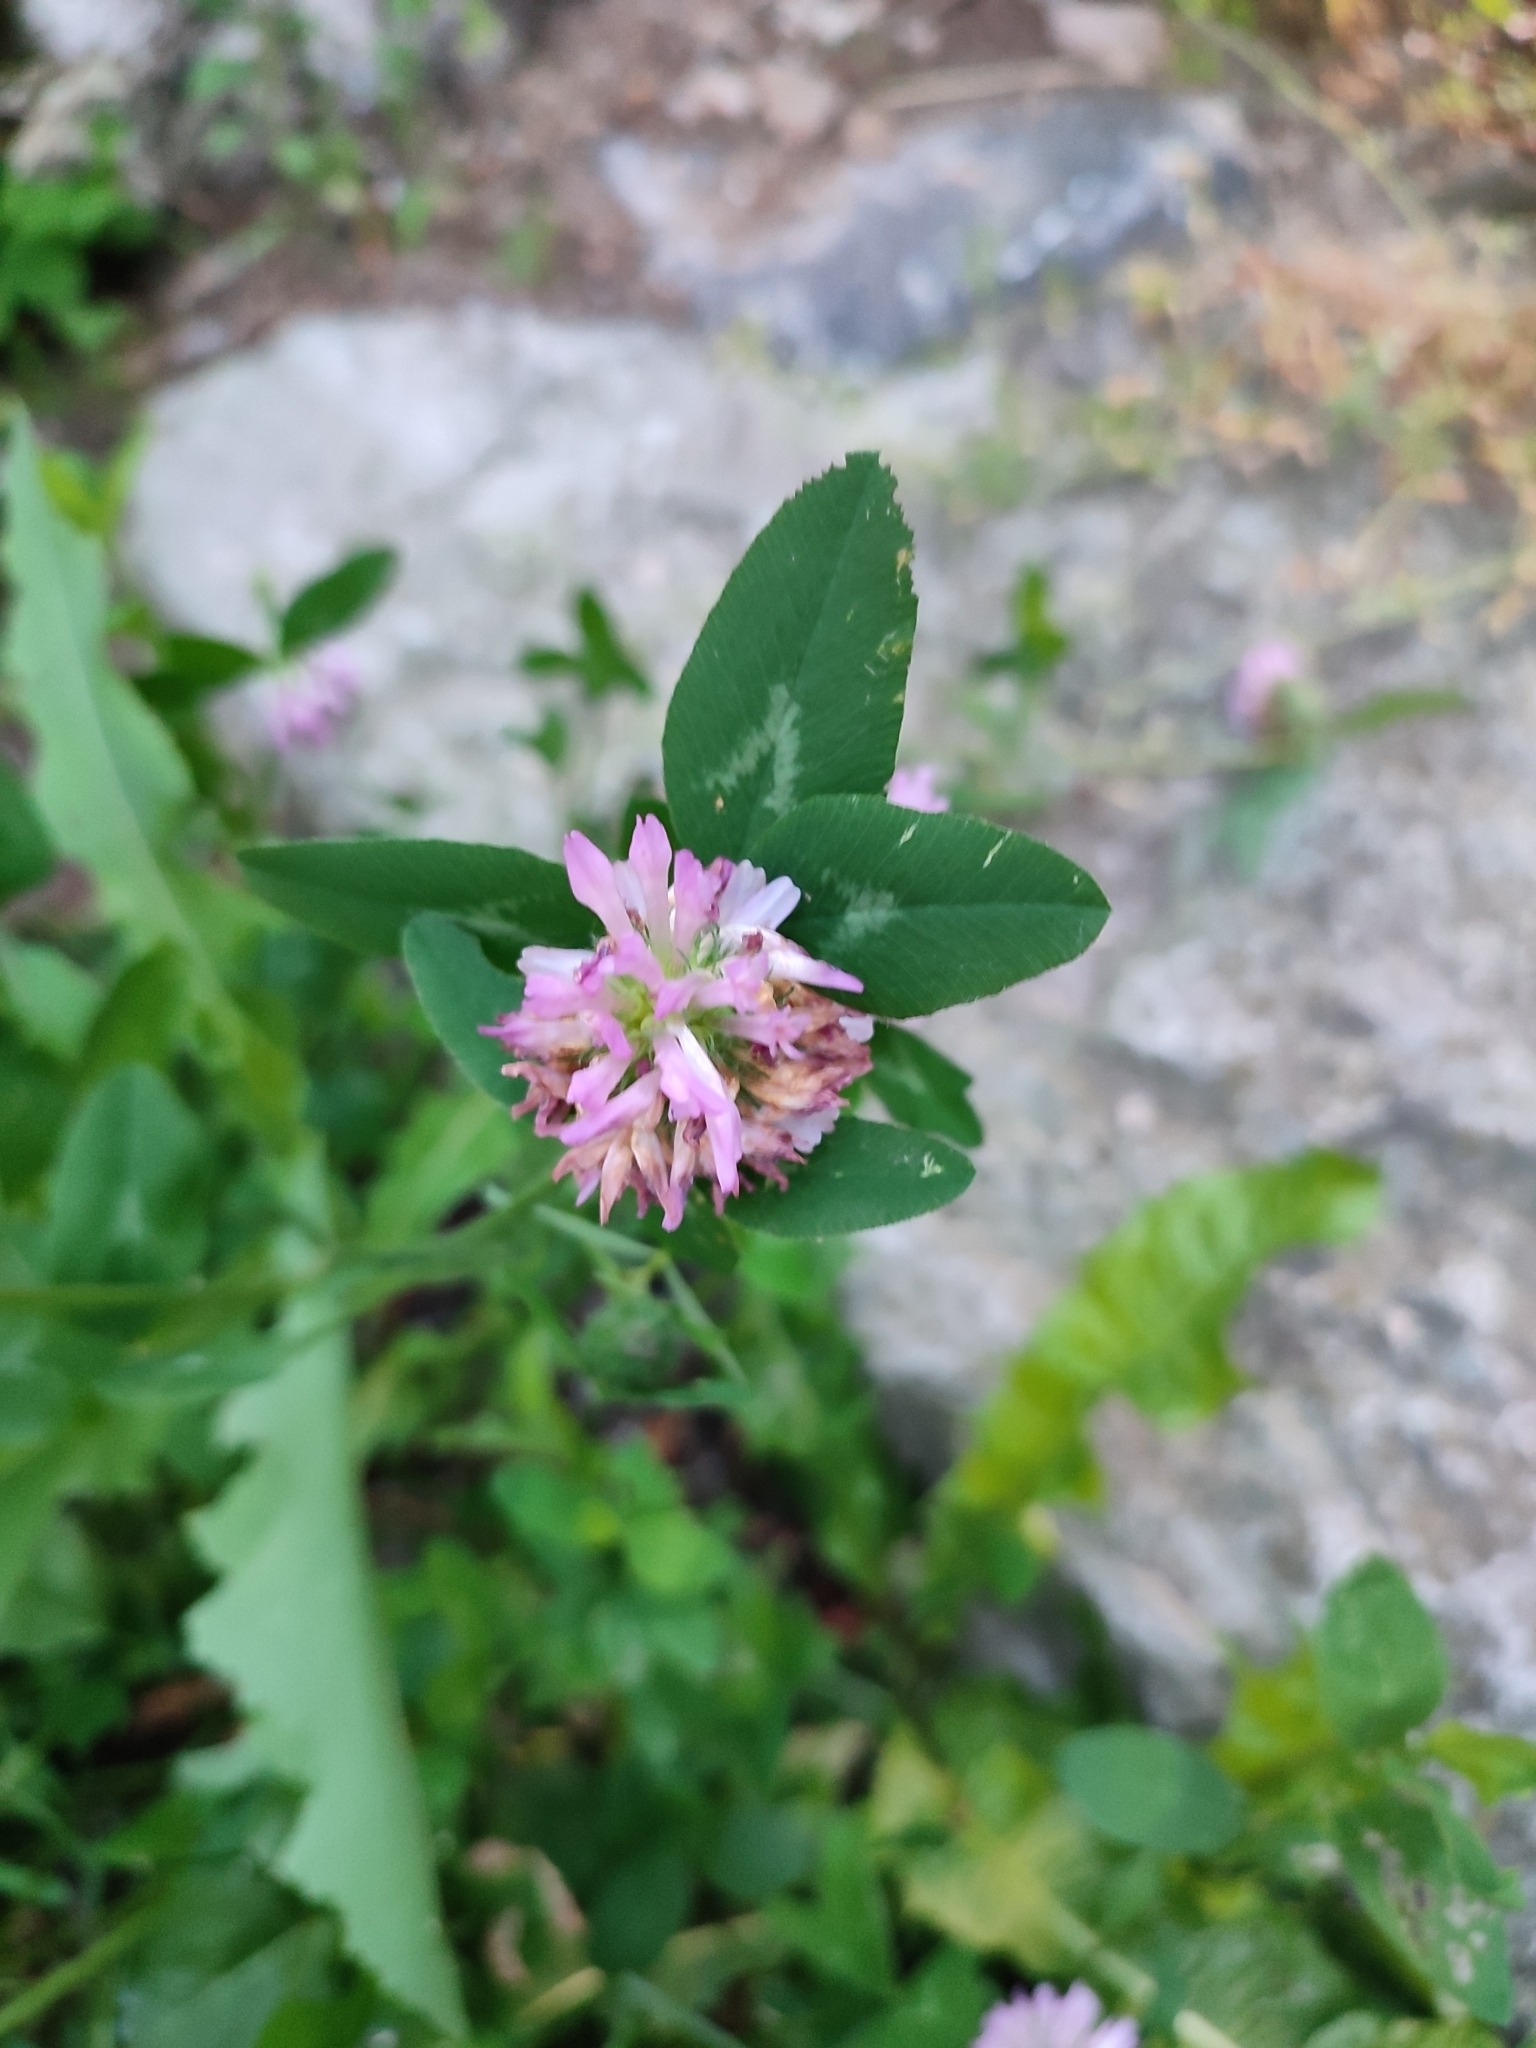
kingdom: Plantae
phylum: Tracheophyta
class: Magnoliopsida
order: Fabales
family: Fabaceae
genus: Trifolium
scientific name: Trifolium pratense
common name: Red clover
